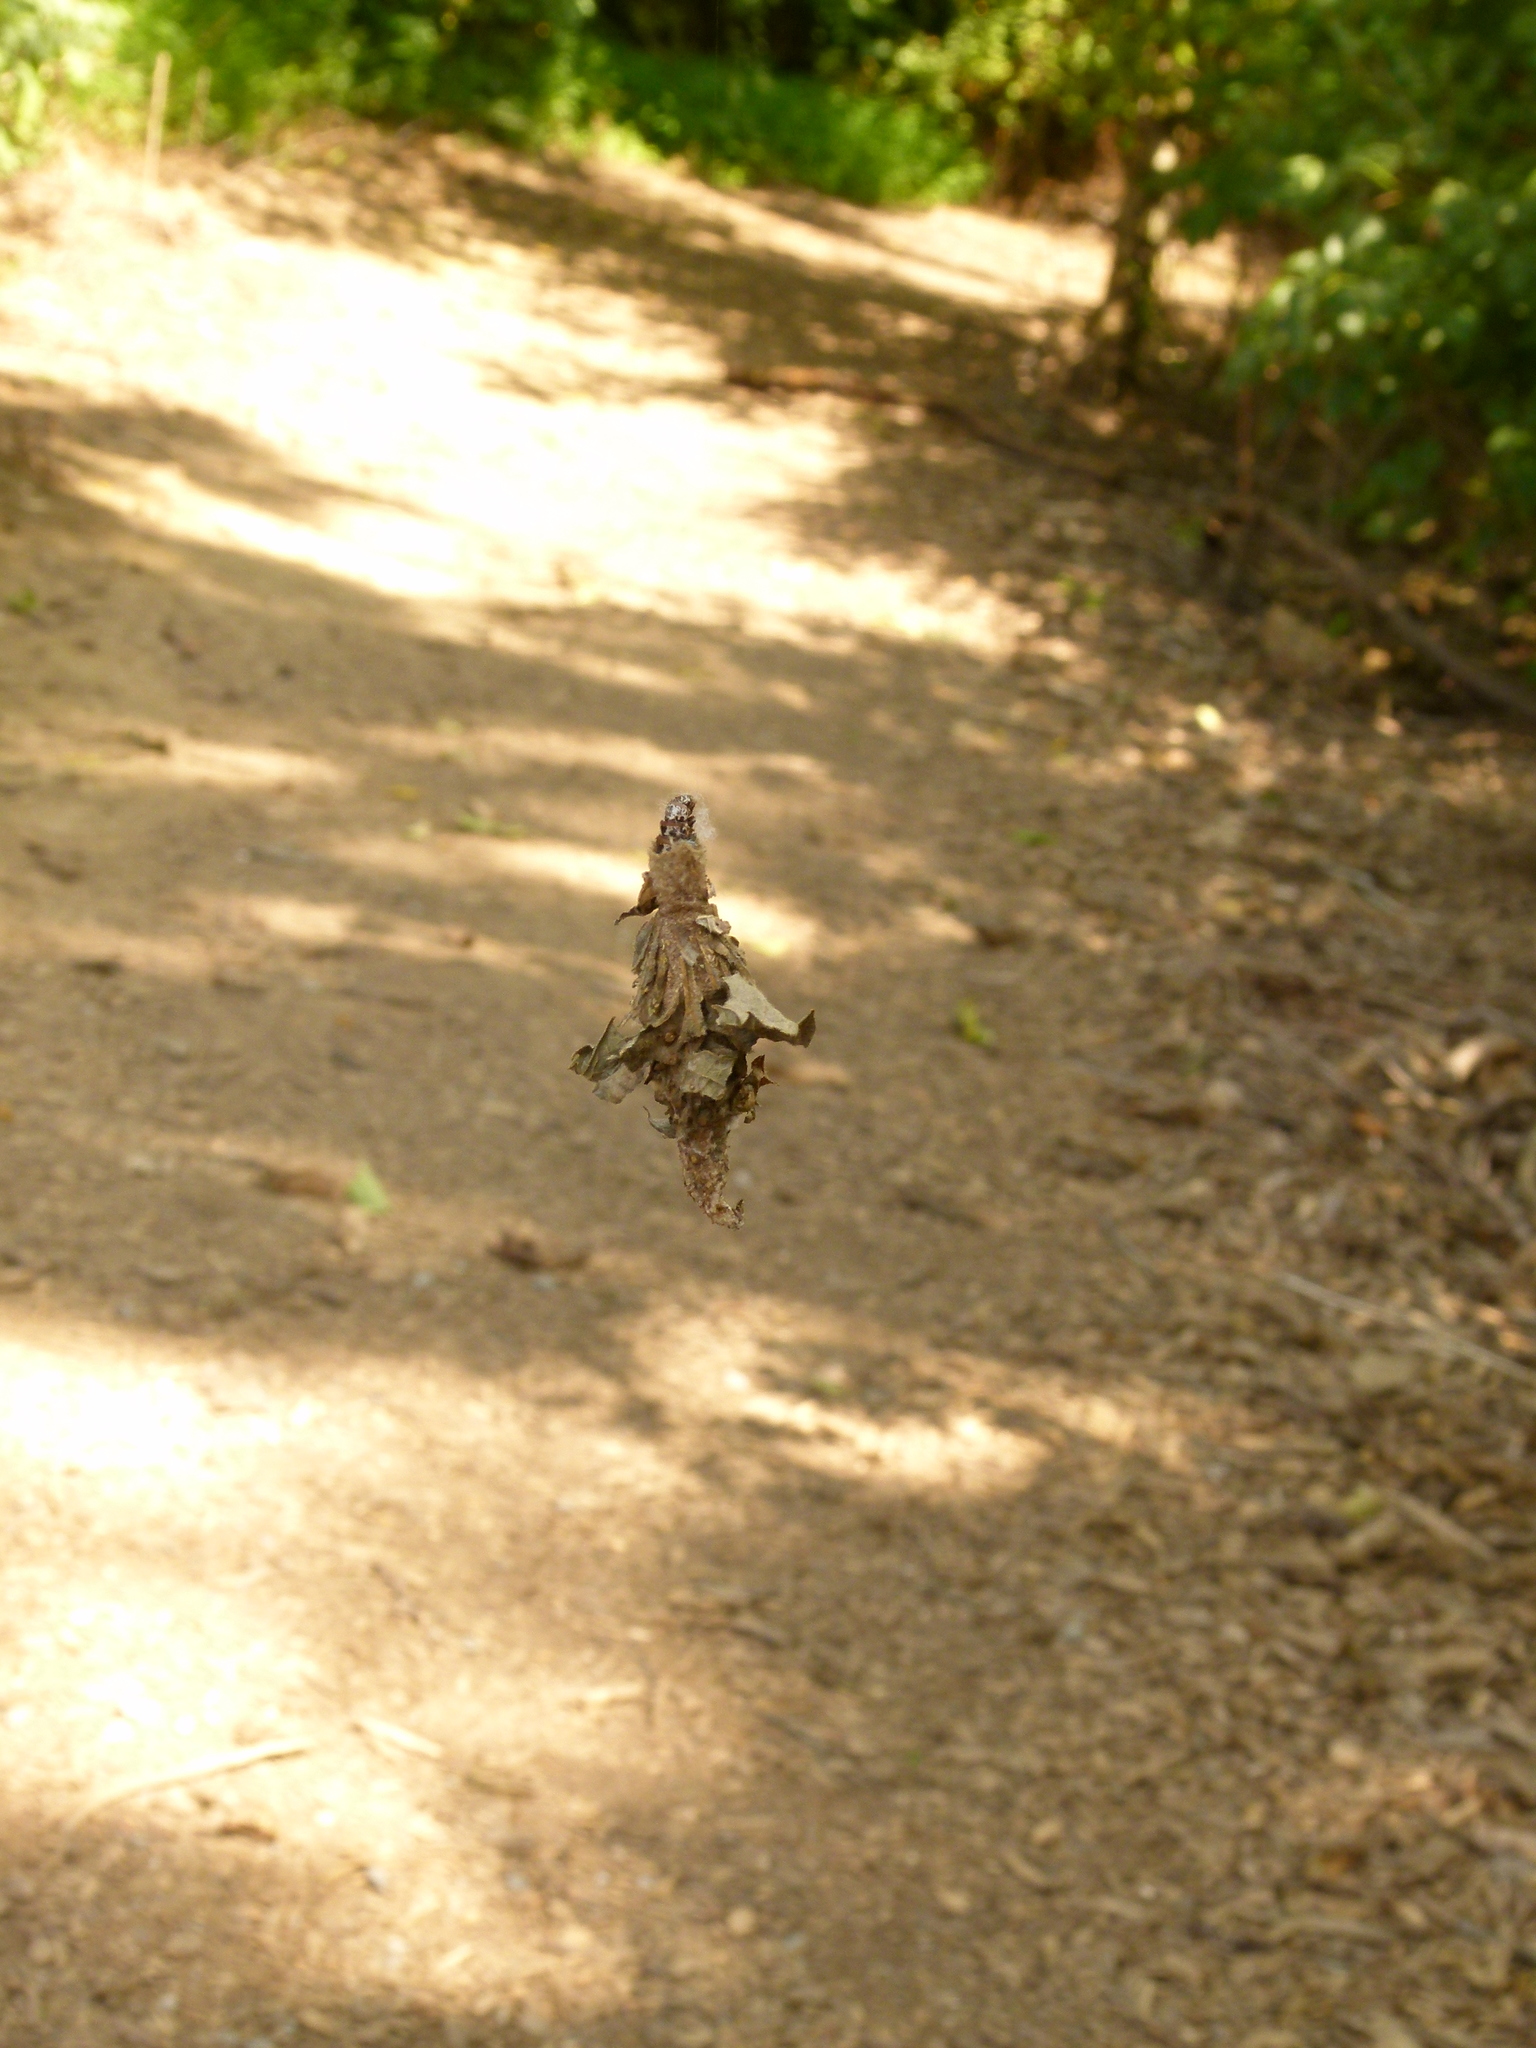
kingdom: Animalia
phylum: Arthropoda
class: Insecta
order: Lepidoptera
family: Psychidae
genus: Thyridopteryx
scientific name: Thyridopteryx ephemeraeformis
